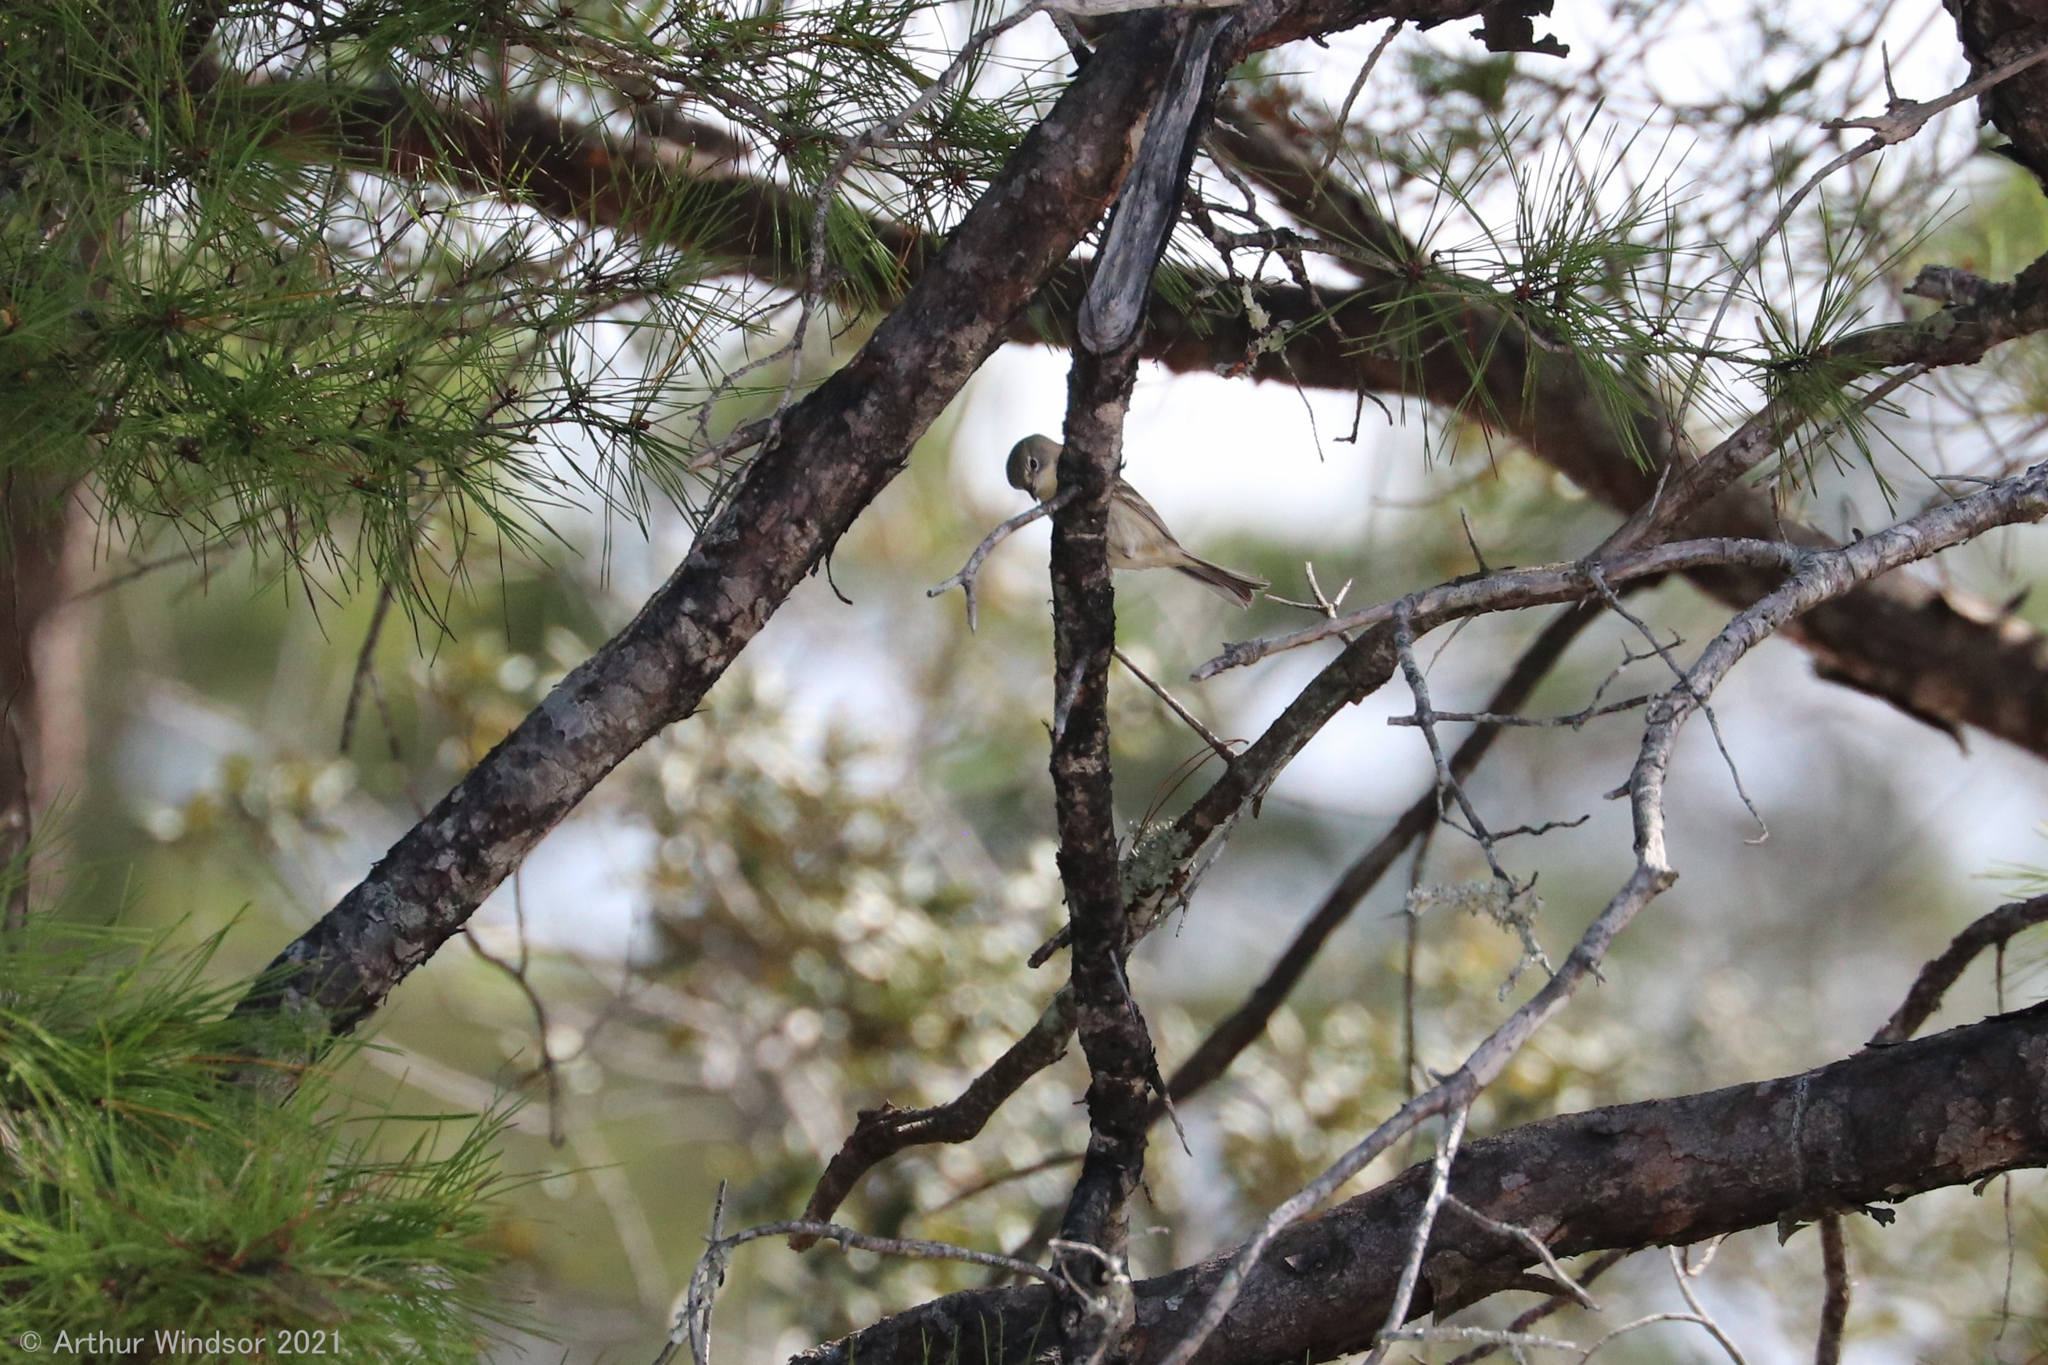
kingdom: Animalia
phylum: Chordata
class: Aves
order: Passeriformes
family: Parulidae
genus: Setophaga
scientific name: Setophaga pinus
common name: Pine warbler
